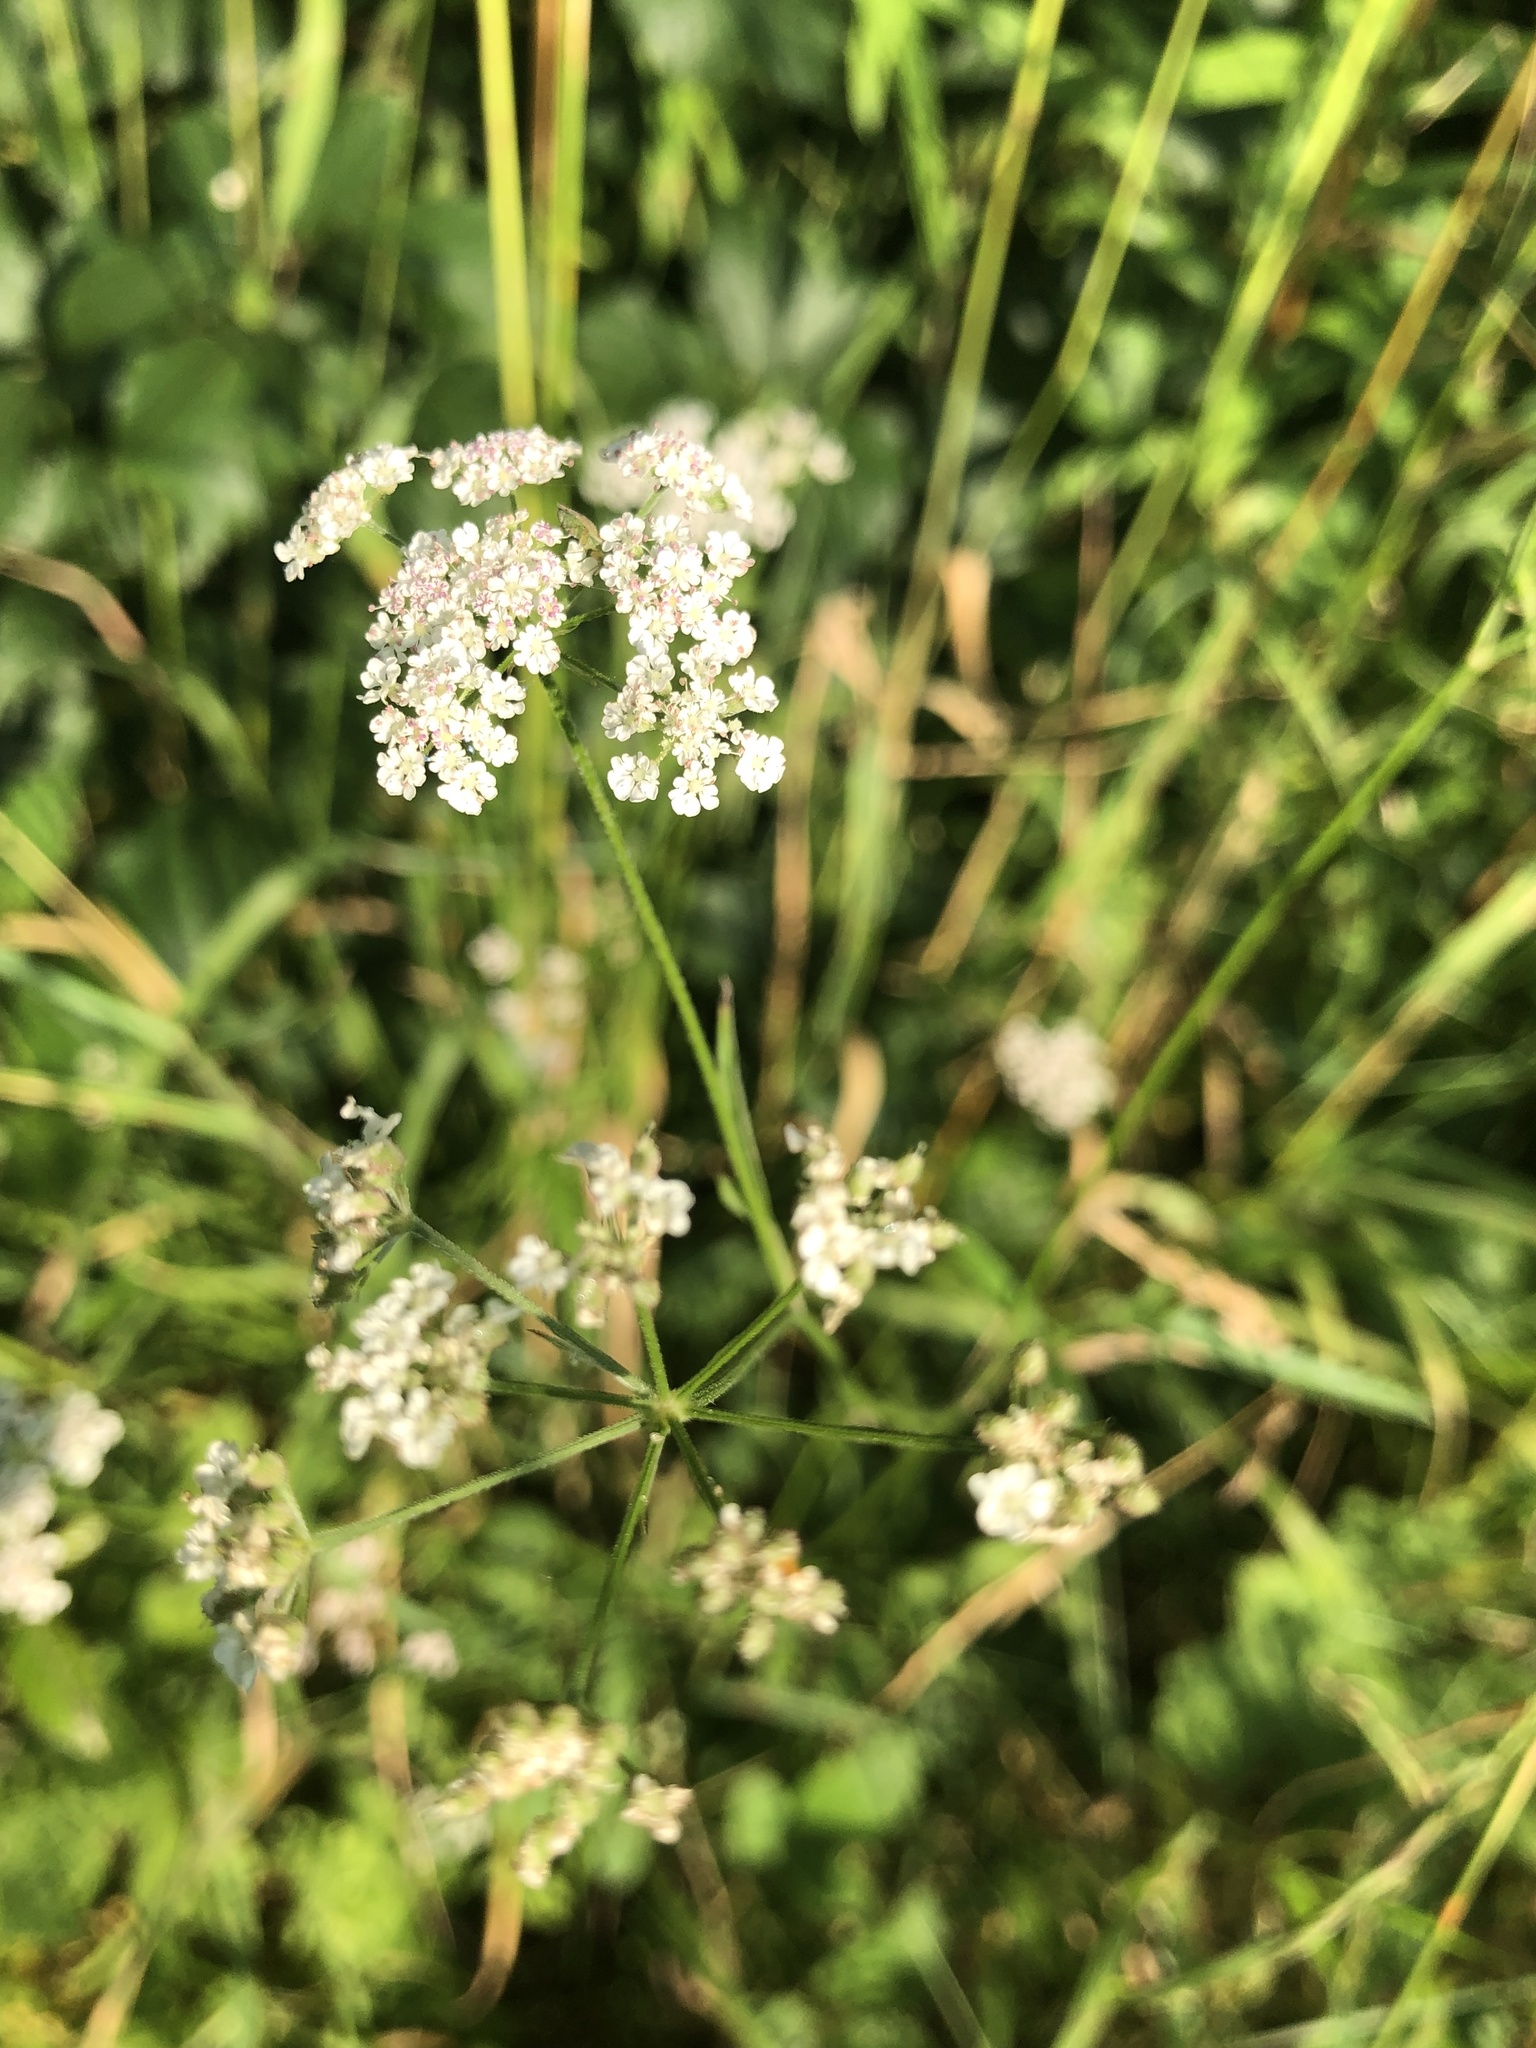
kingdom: Plantae
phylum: Tracheophyta
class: Magnoliopsida
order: Apiales
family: Apiaceae
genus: Torilis
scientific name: Torilis japonica
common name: Upright hedge-parsley
